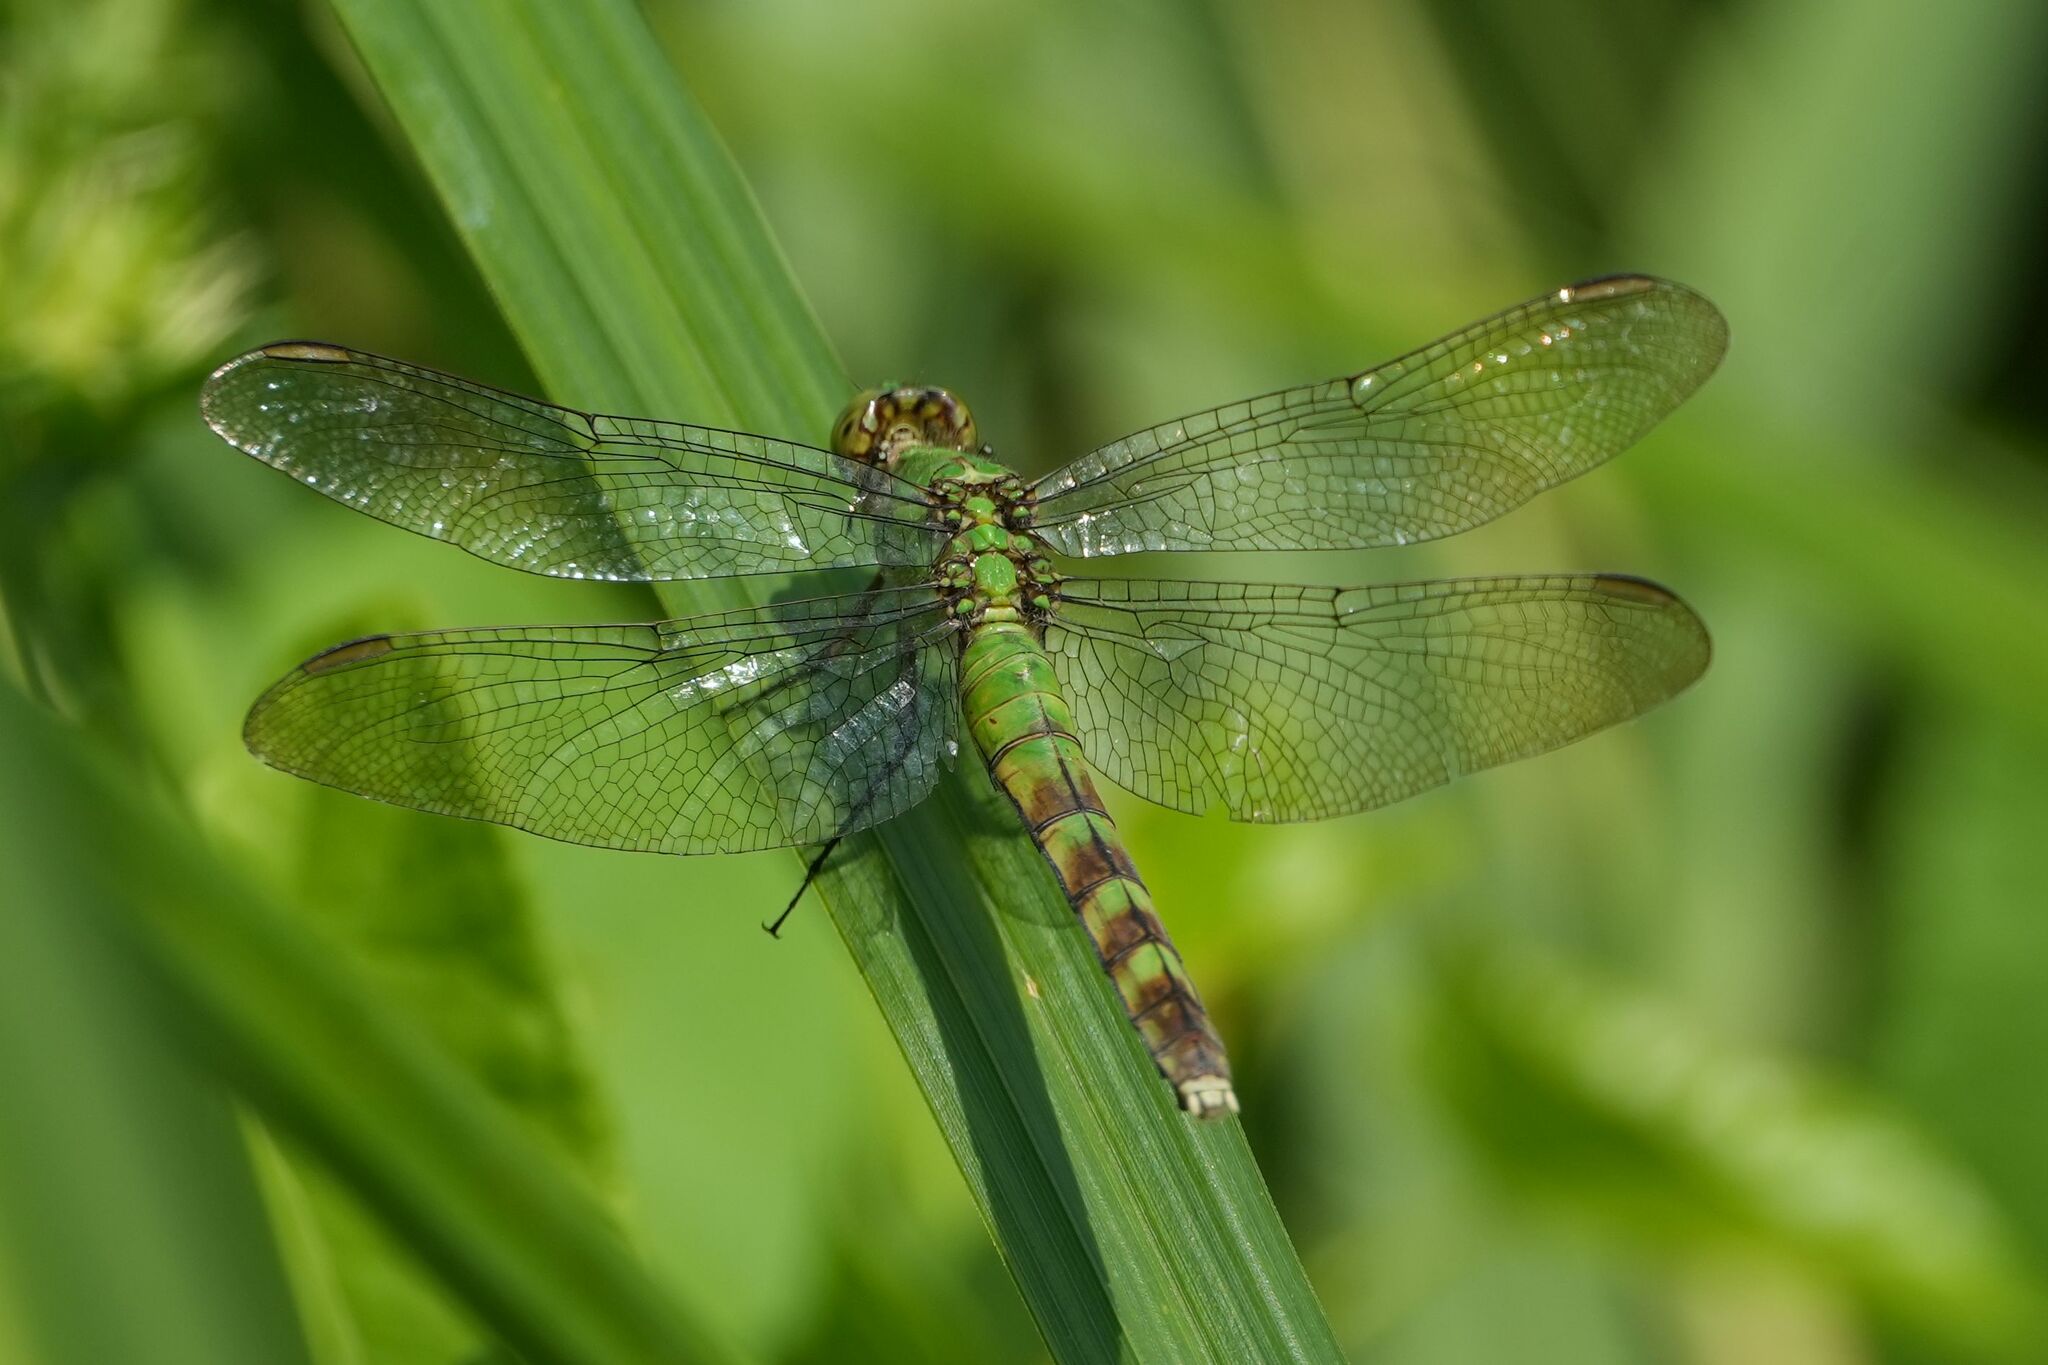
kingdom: Animalia
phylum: Arthropoda
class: Insecta
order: Odonata
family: Libellulidae
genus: Erythemis
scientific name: Erythemis simplicicollis
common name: Eastern pondhawk
